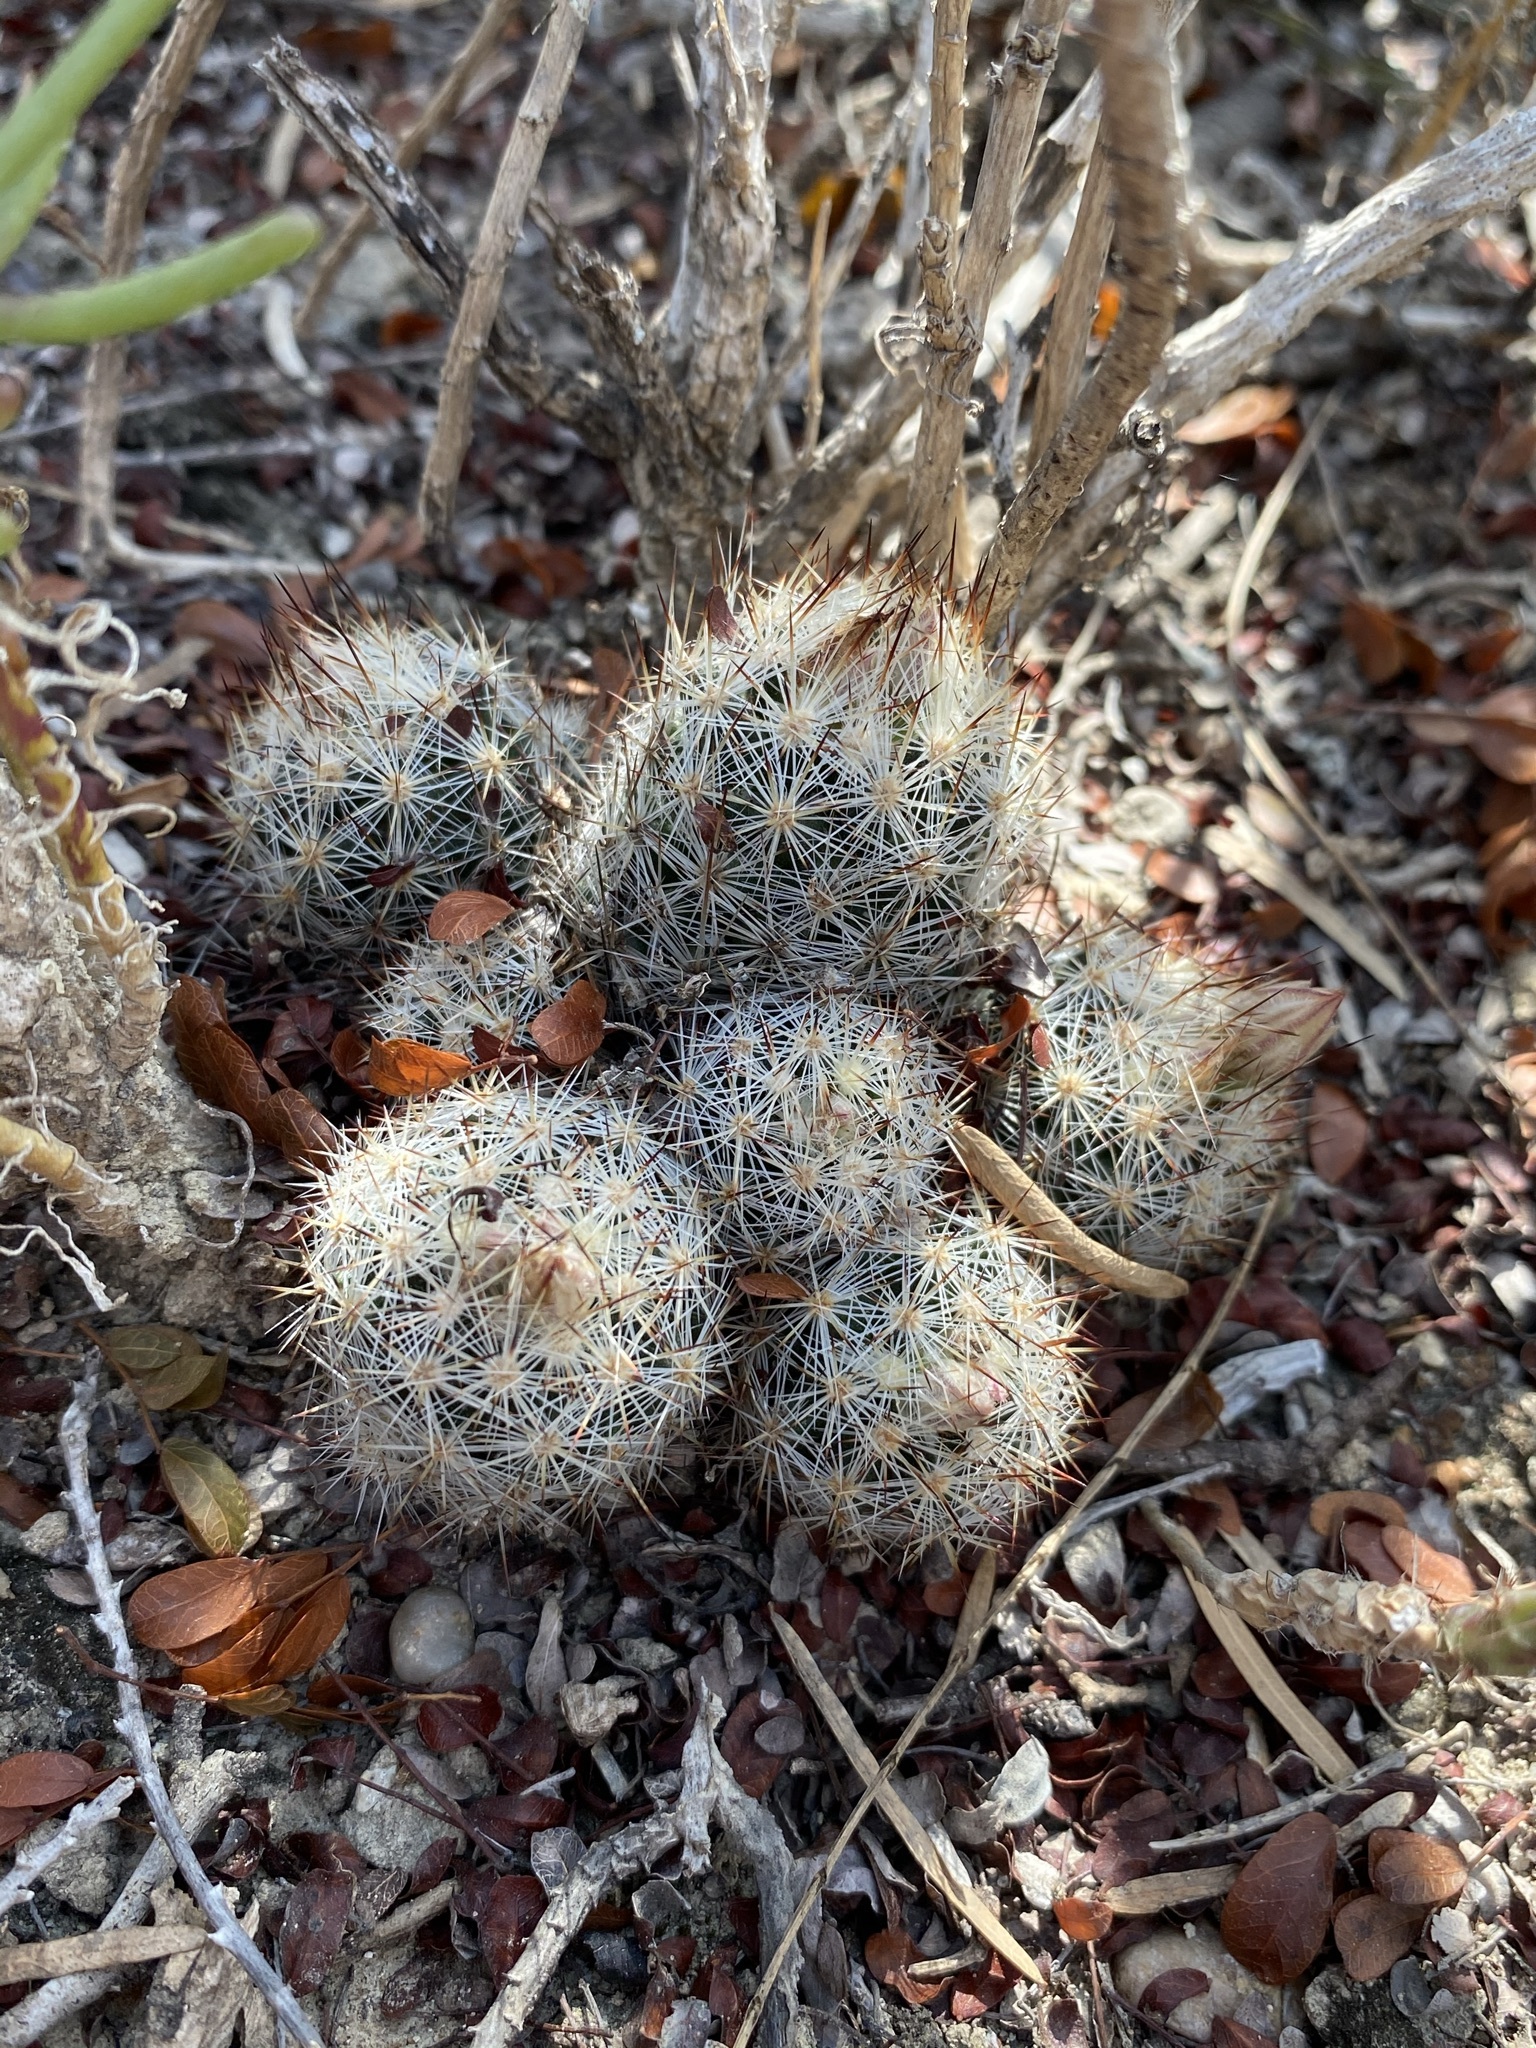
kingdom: Plantae
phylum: Tracheophyta
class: Magnoliopsida
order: Caryophyllales
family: Cactaceae
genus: Pelecyphora
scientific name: Pelecyphora emskoetteriana
